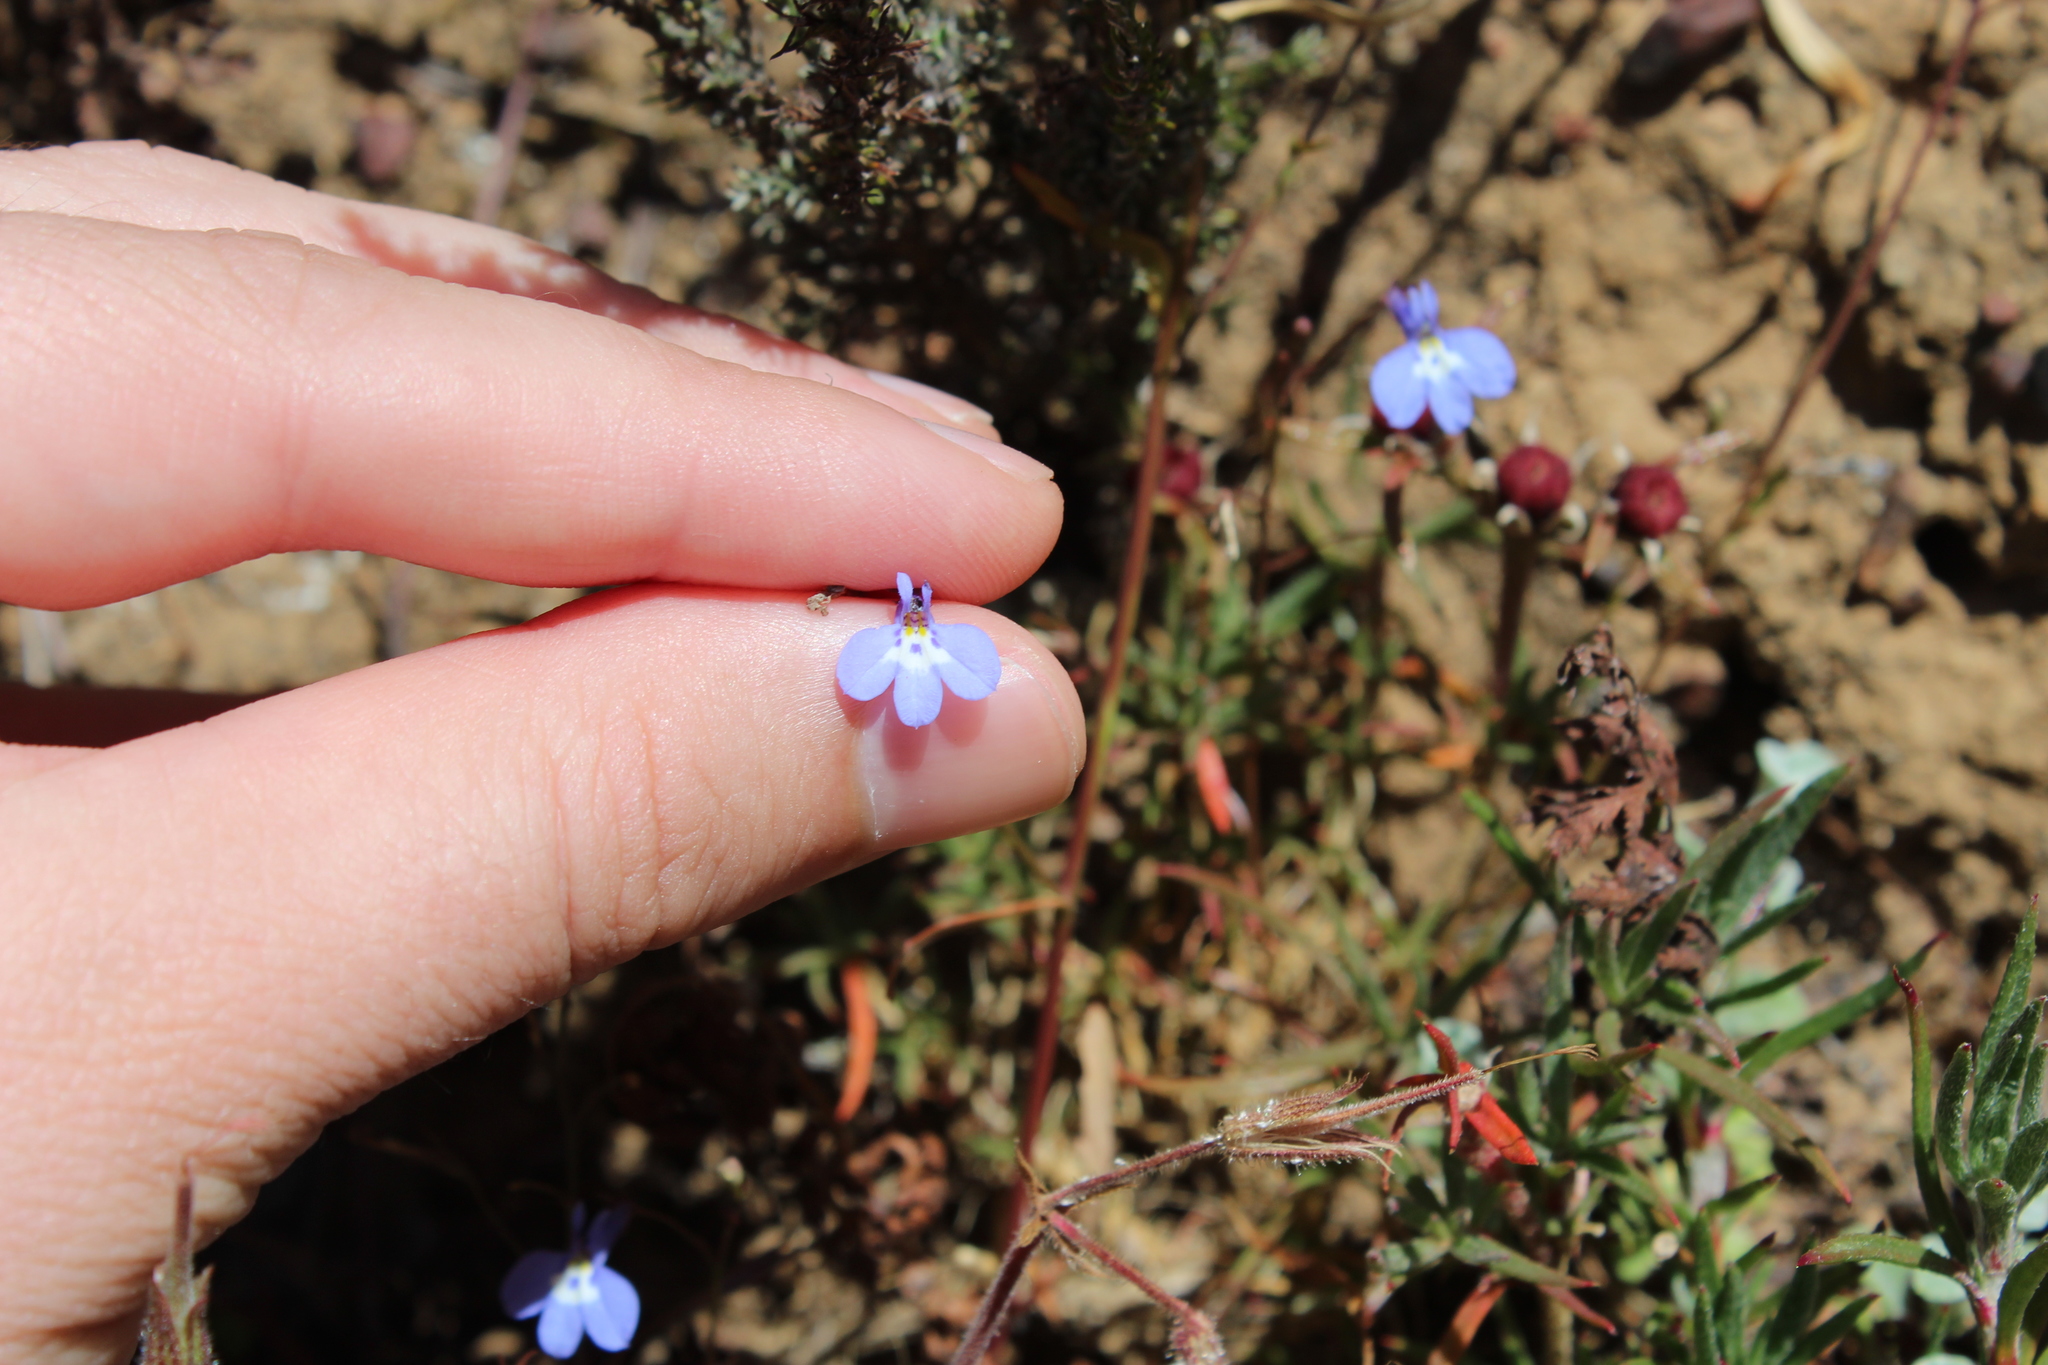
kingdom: Plantae
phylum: Tracheophyta
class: Magnoliopsida
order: Asterales
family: Campanulaceae
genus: Lobelia
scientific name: Lobelia erinus
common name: Edging lobelia
